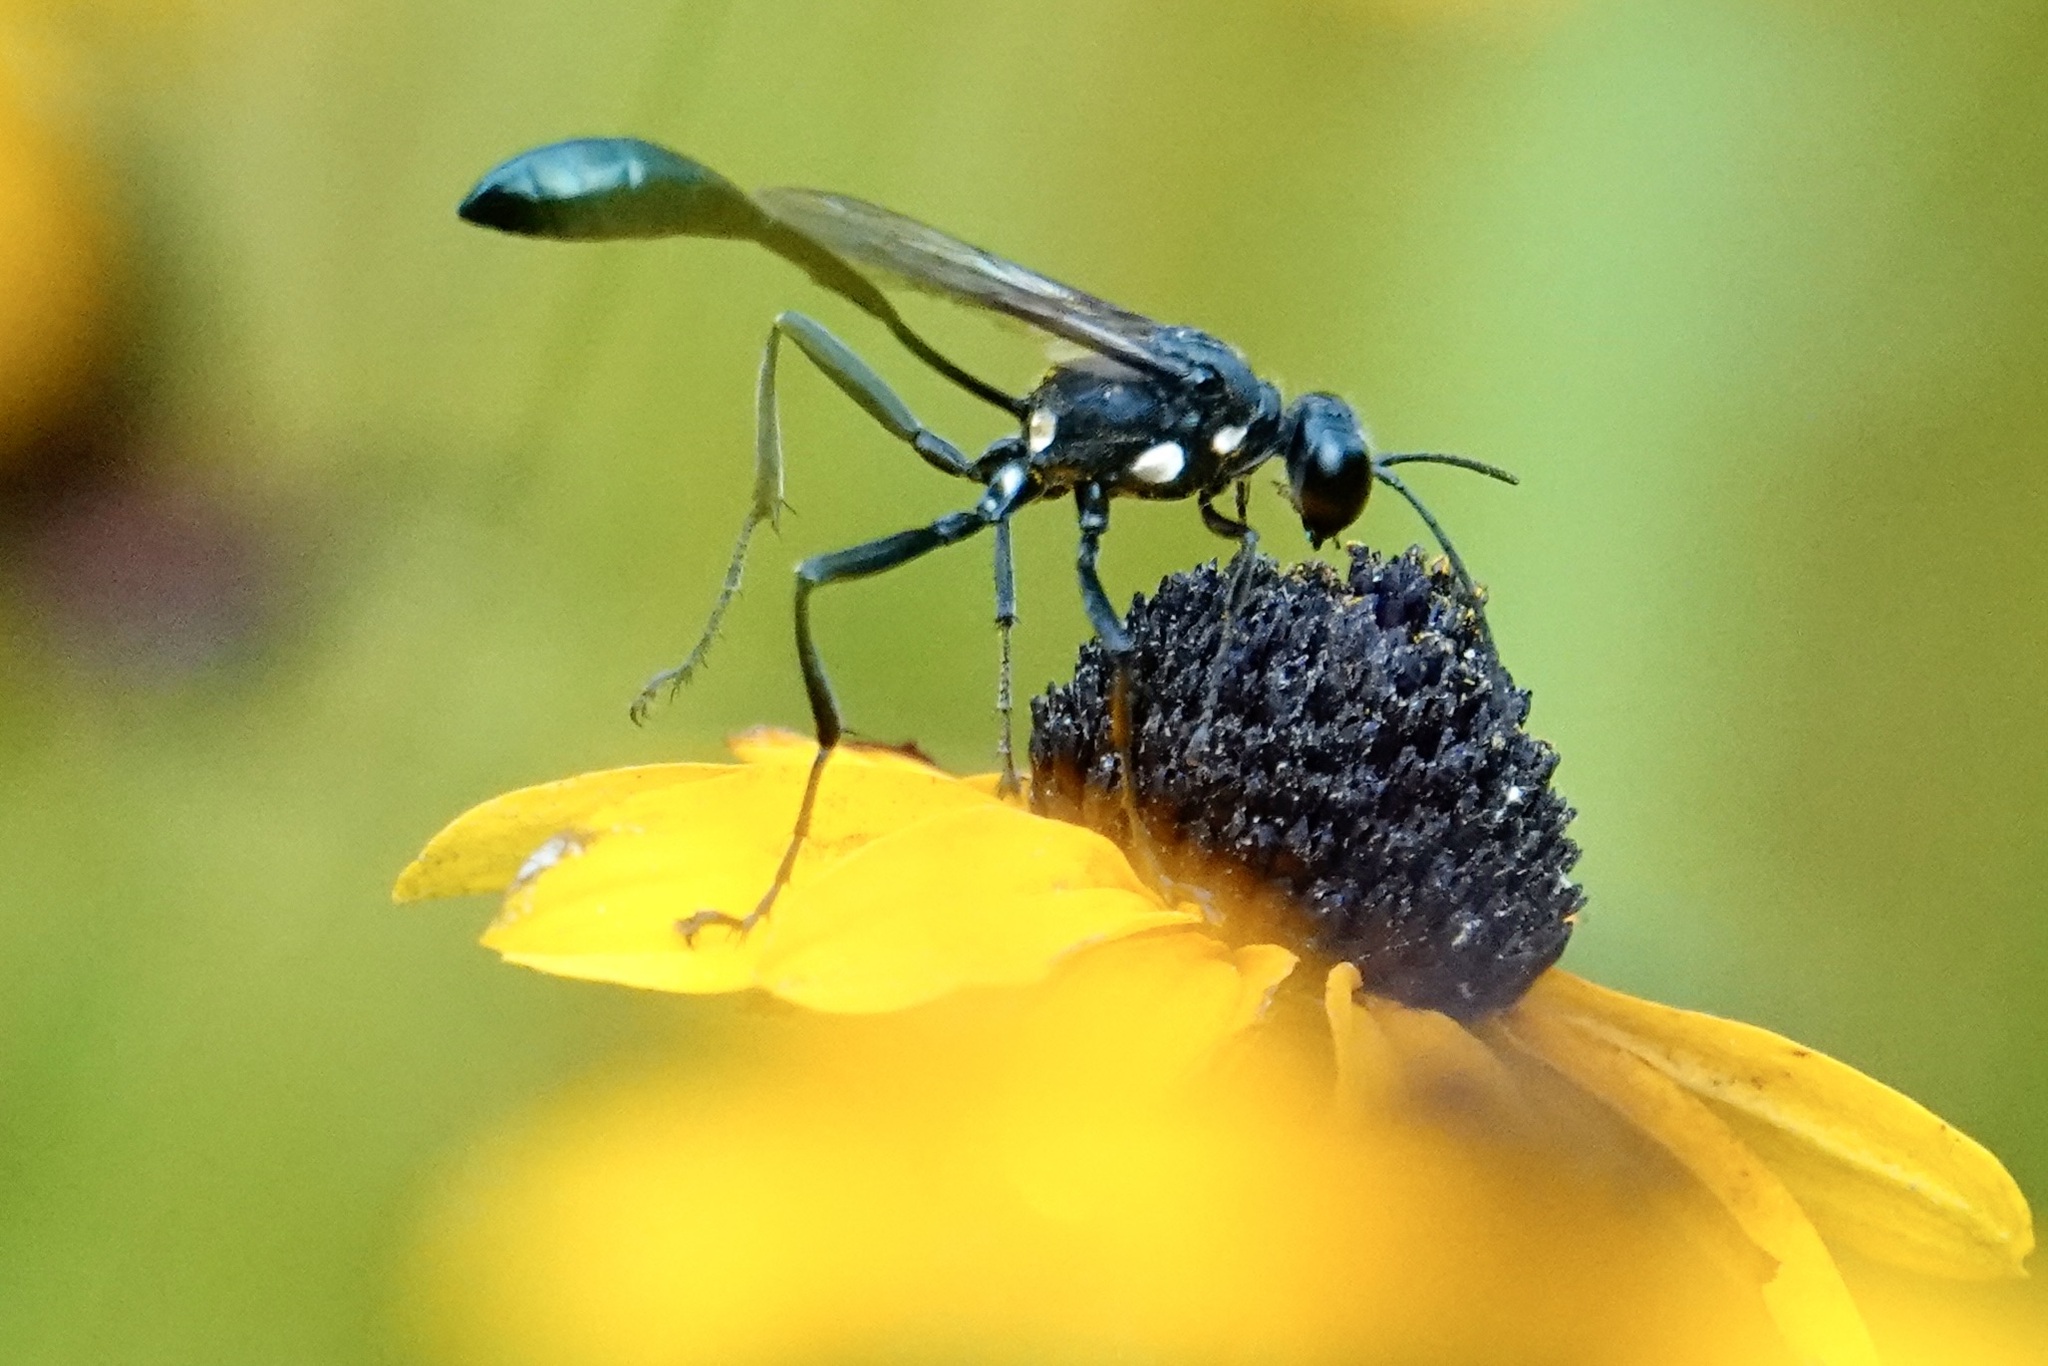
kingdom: Animalia
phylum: Arthropoda
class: Insecta
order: Hymenoptera
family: Sphecidae
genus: Eremnophila
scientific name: Eremnophila aureonotata
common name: Gold-marked thread-waisted wasp
